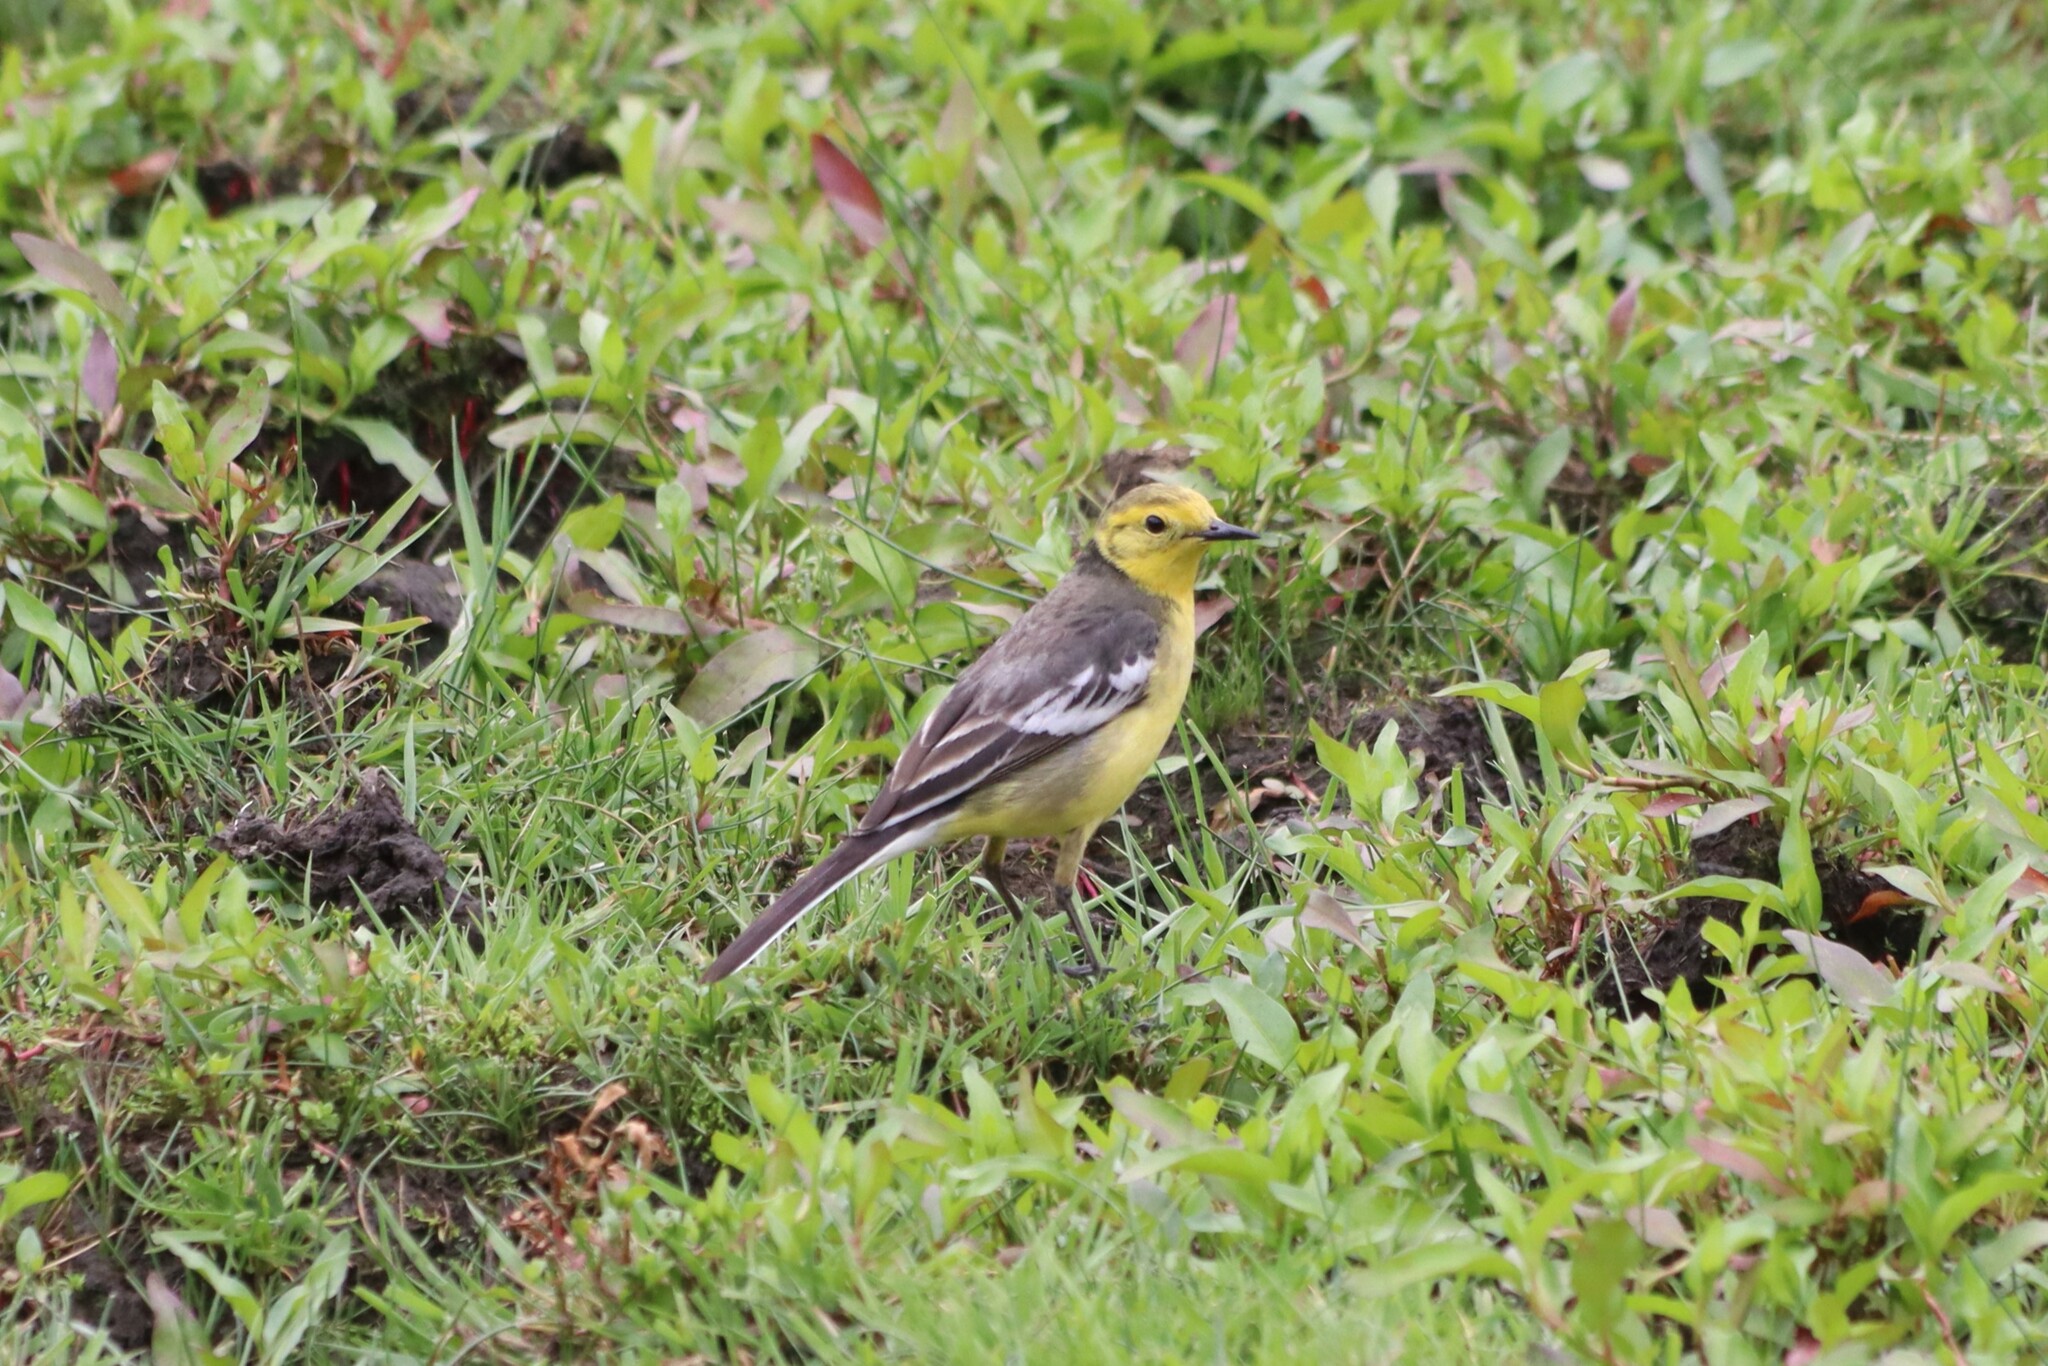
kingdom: Animalia
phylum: Chordata
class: Aves
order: Passeriformes
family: Motacillidae
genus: Motacilla
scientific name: Motacilla citreola
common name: Citrine wagtail
